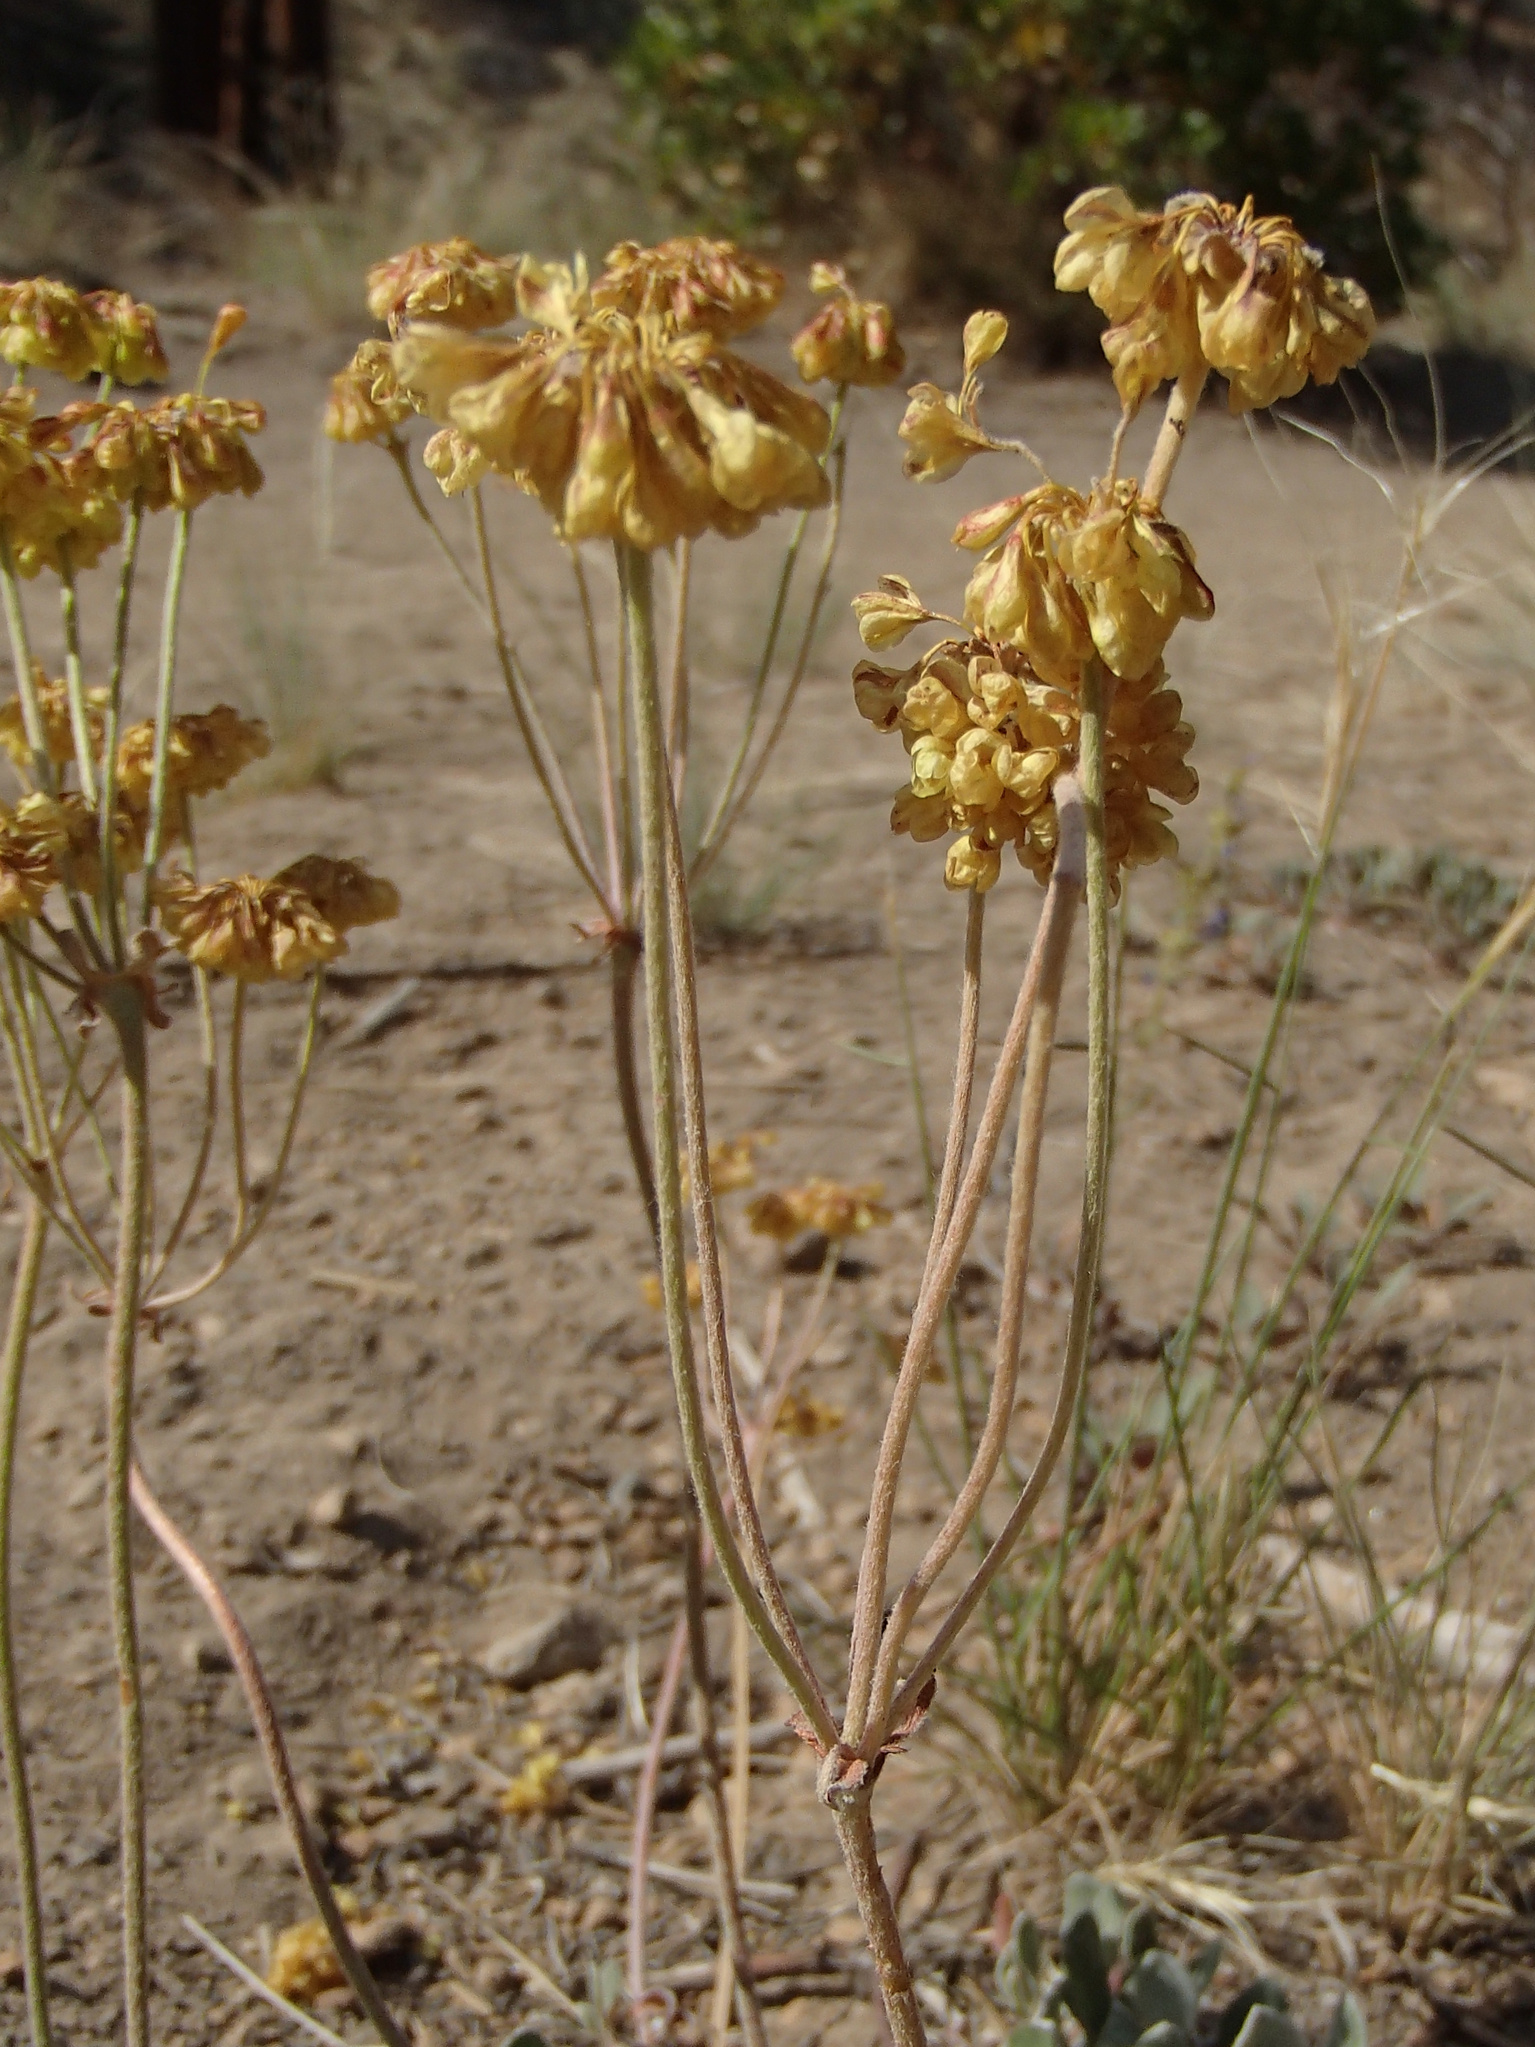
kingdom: Plantae
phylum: Tracheophyta
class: Magnoliopsida
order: Caryophyllales
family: Polygonaceae
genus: Eriogonum
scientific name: Eriogonum umbellatum
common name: Sulfur-buckwheat
